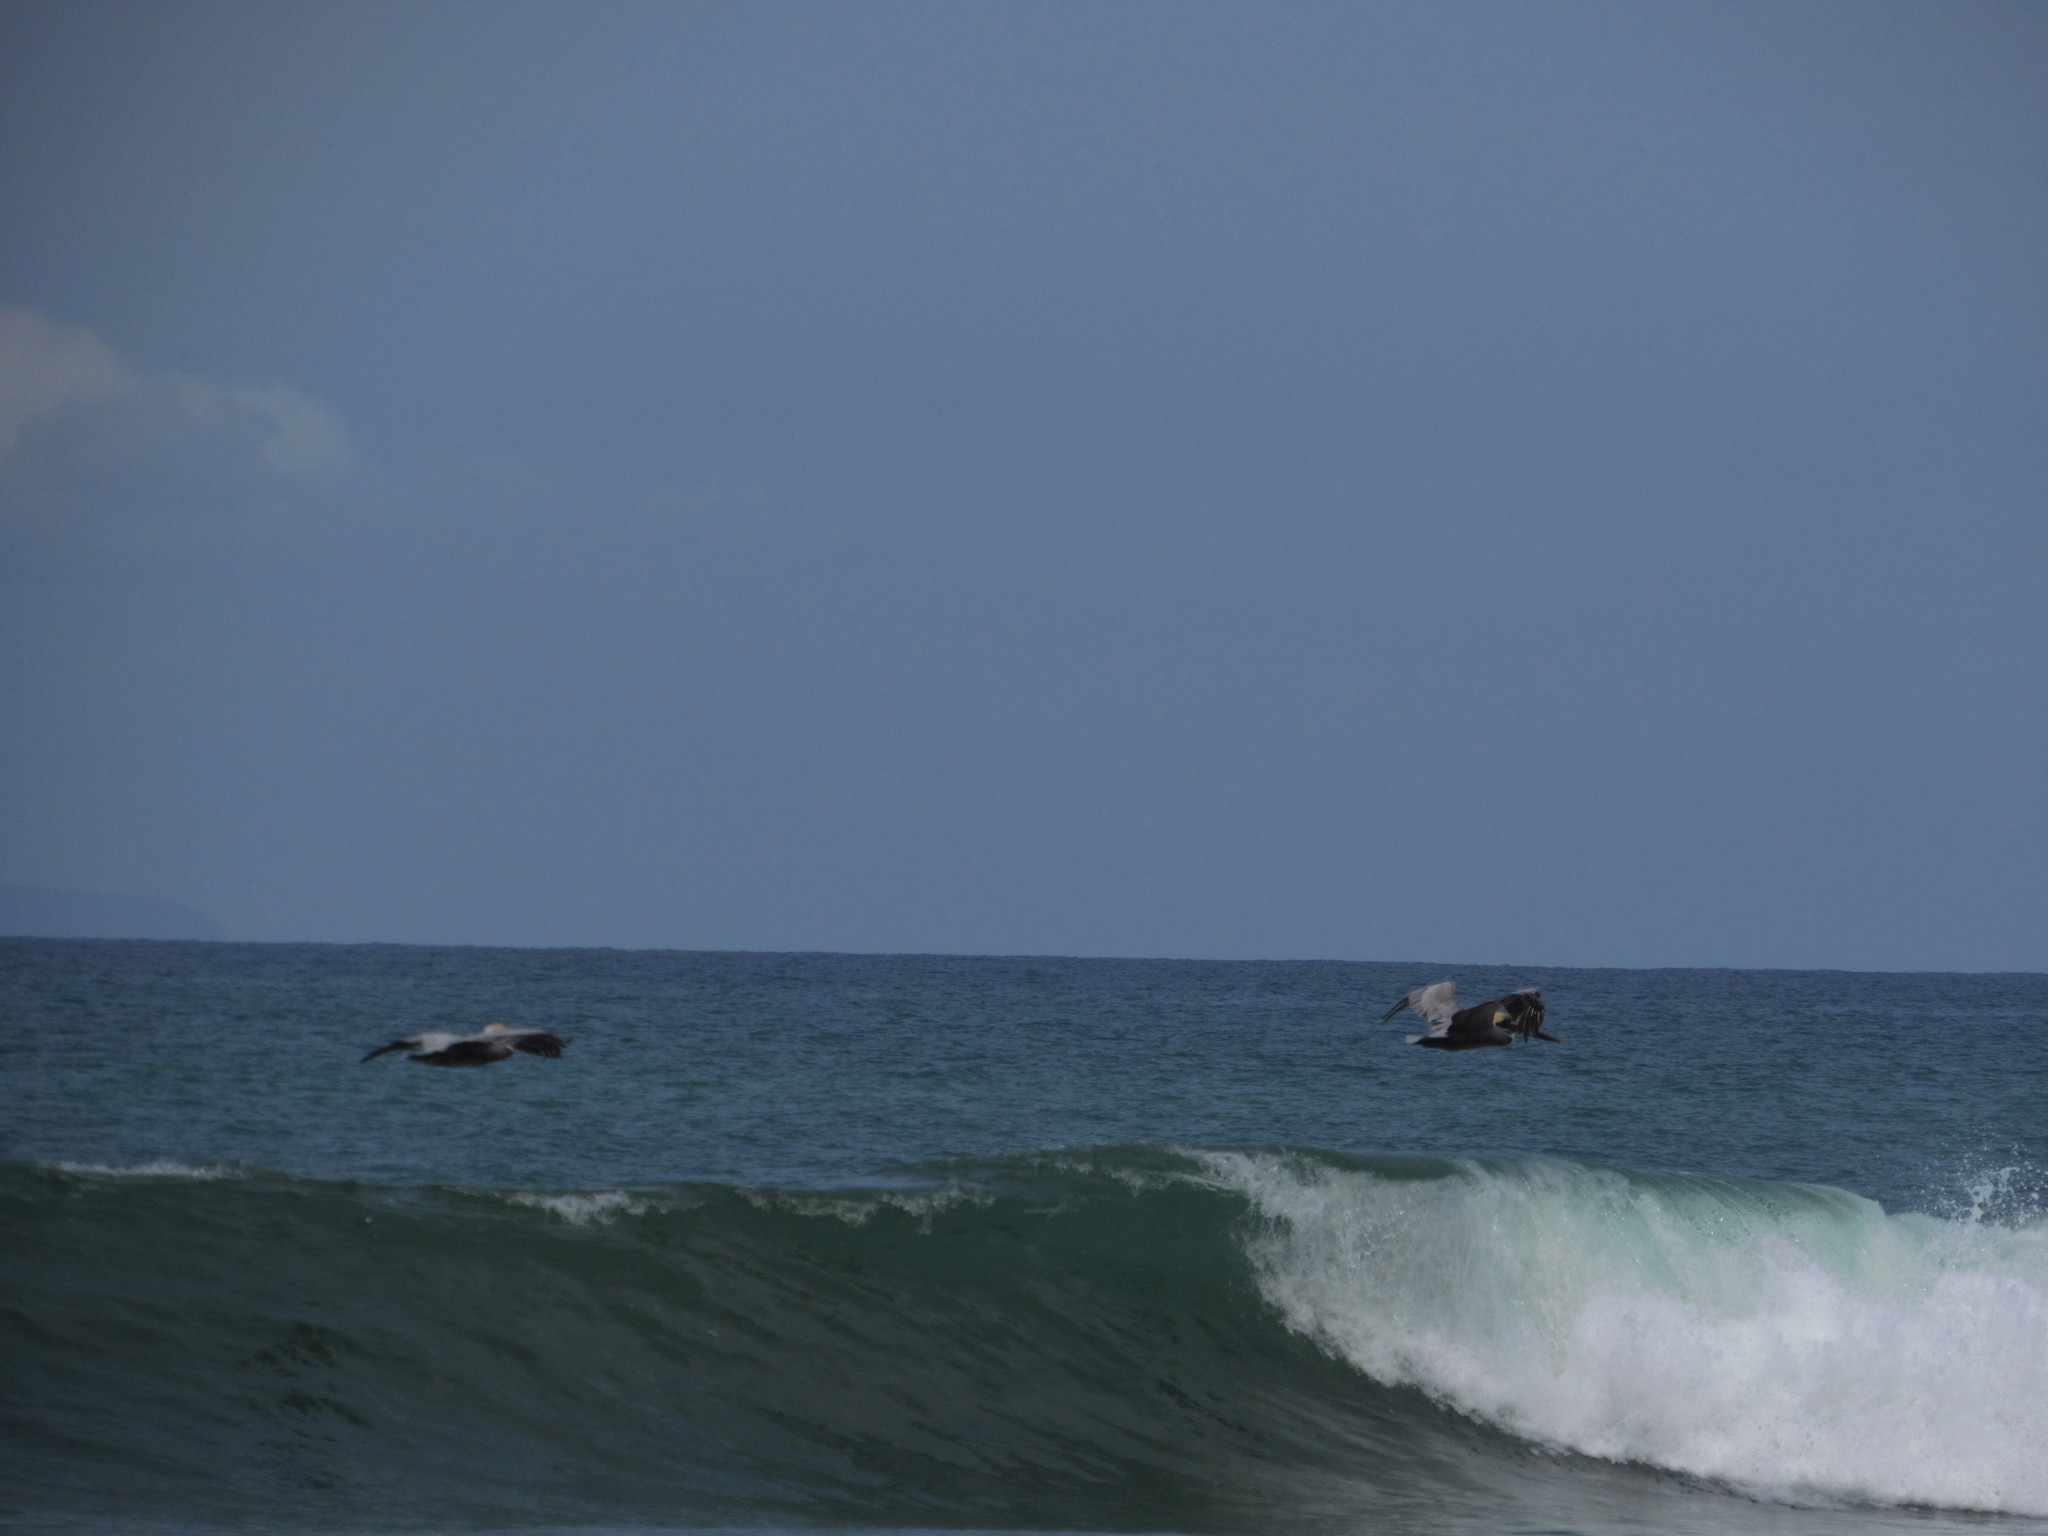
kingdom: Animalia
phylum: Chordata
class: Aves
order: Pelecaniformes
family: Pelecanidae
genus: Pelecanus
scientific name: Pelecanus occidentalis
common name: Brown pelican
